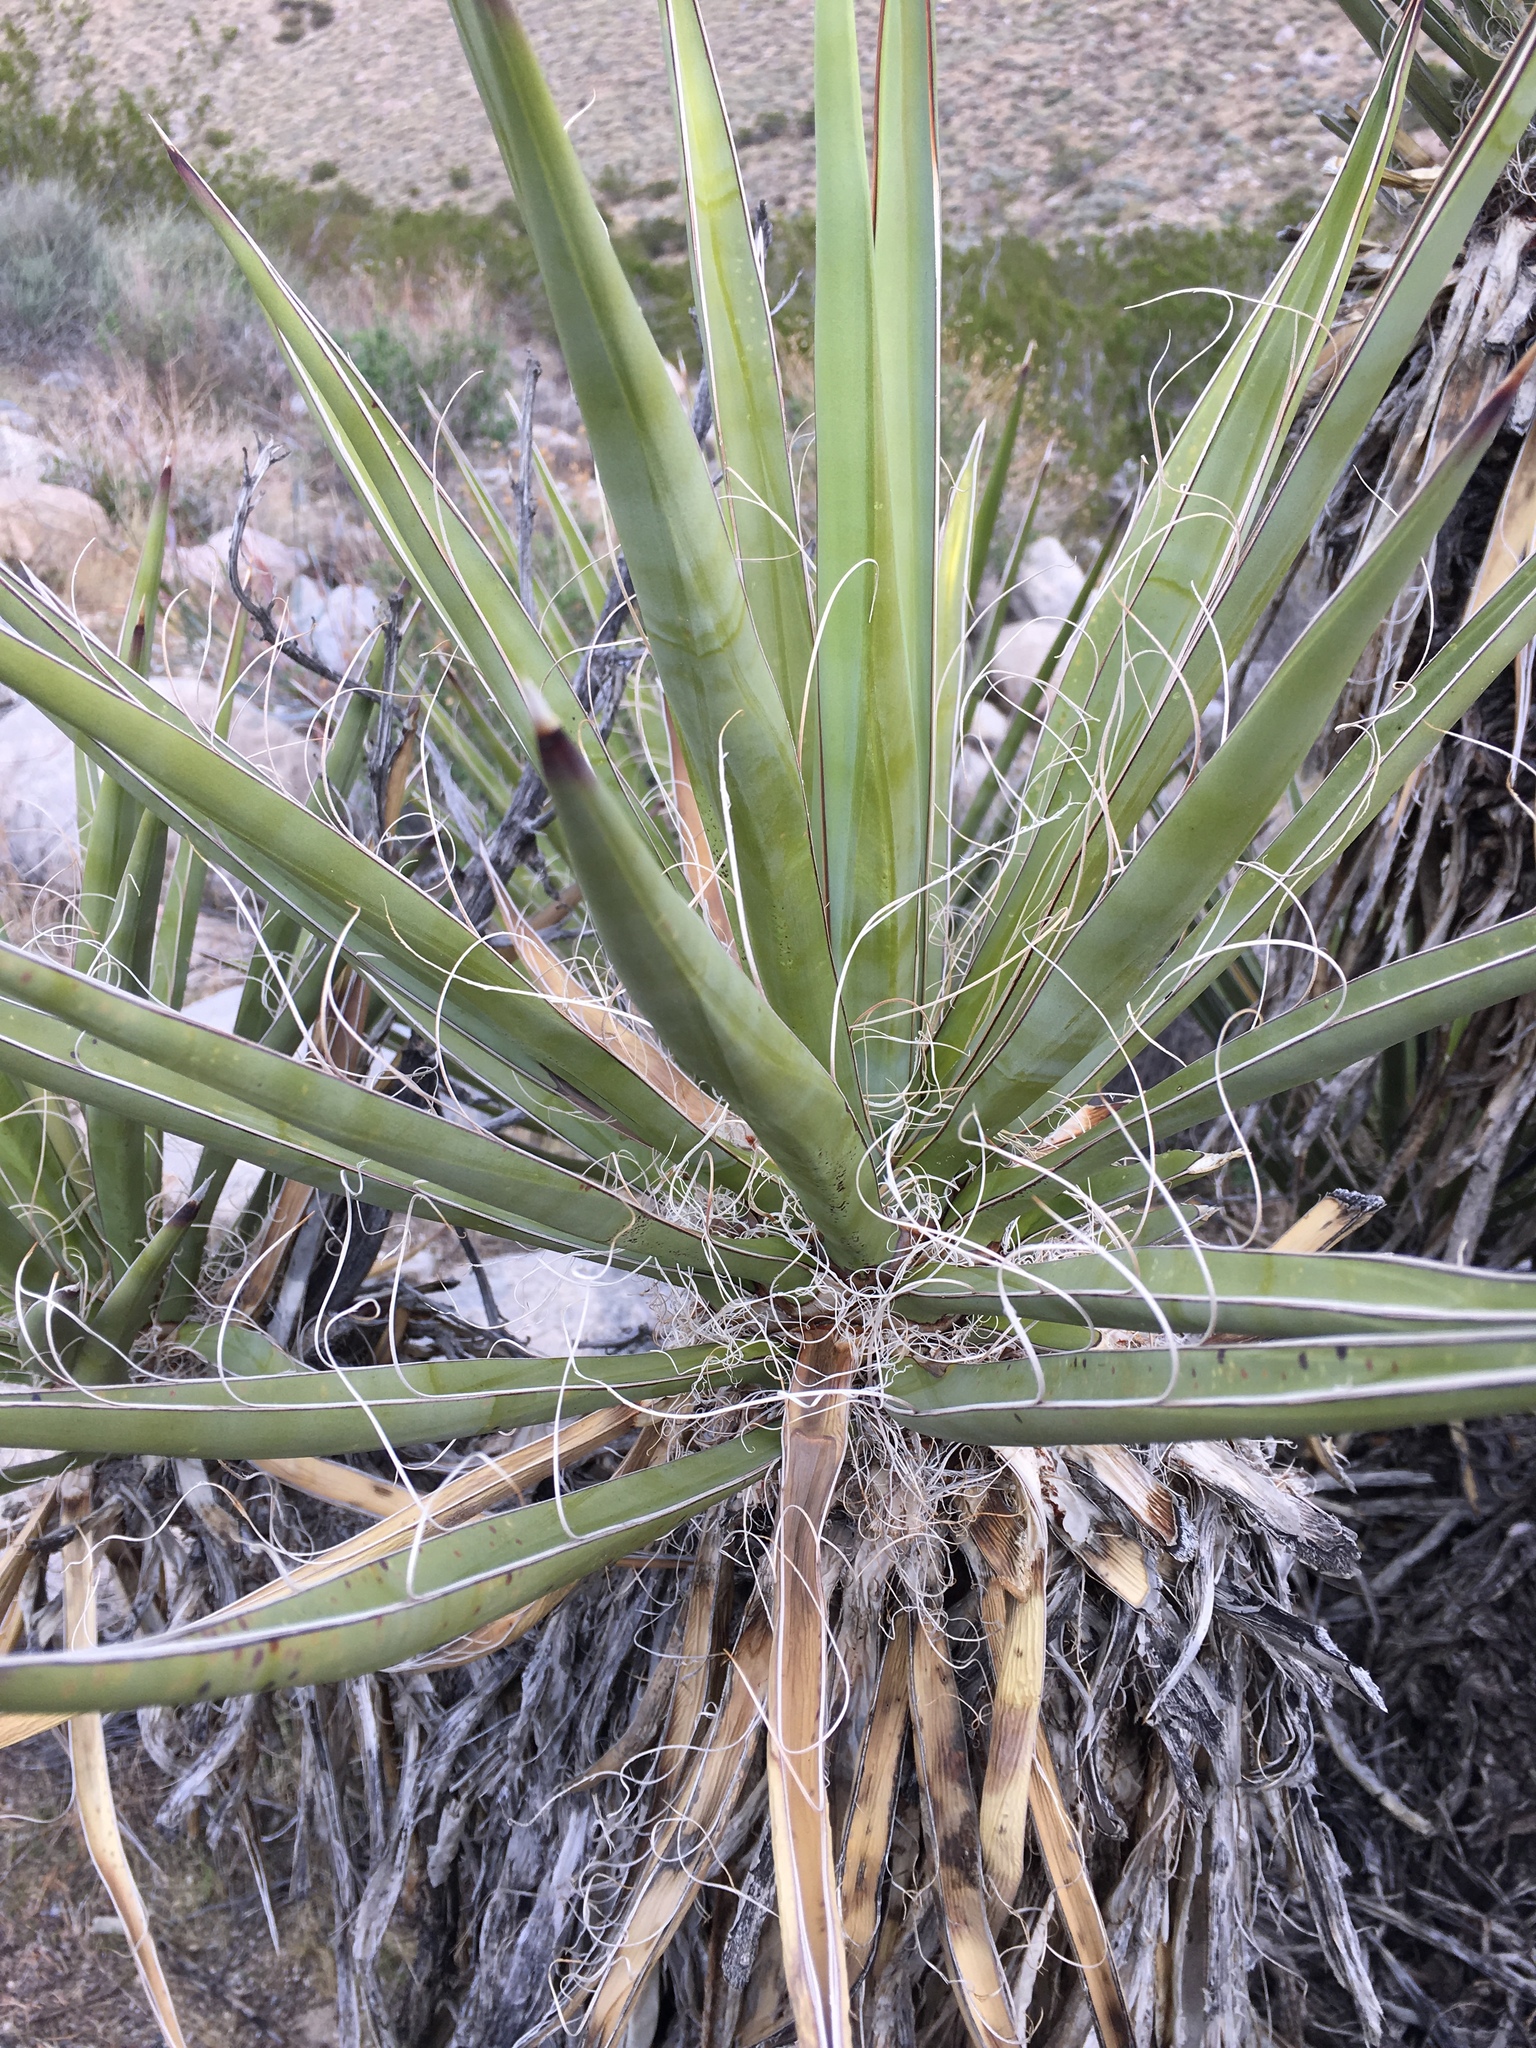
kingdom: Plantae
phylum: Tracheophyta
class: Liliopsida
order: Asparagales
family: Asparagaceae
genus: Yucca
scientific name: Yucca schidigera
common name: Mojave yucca
